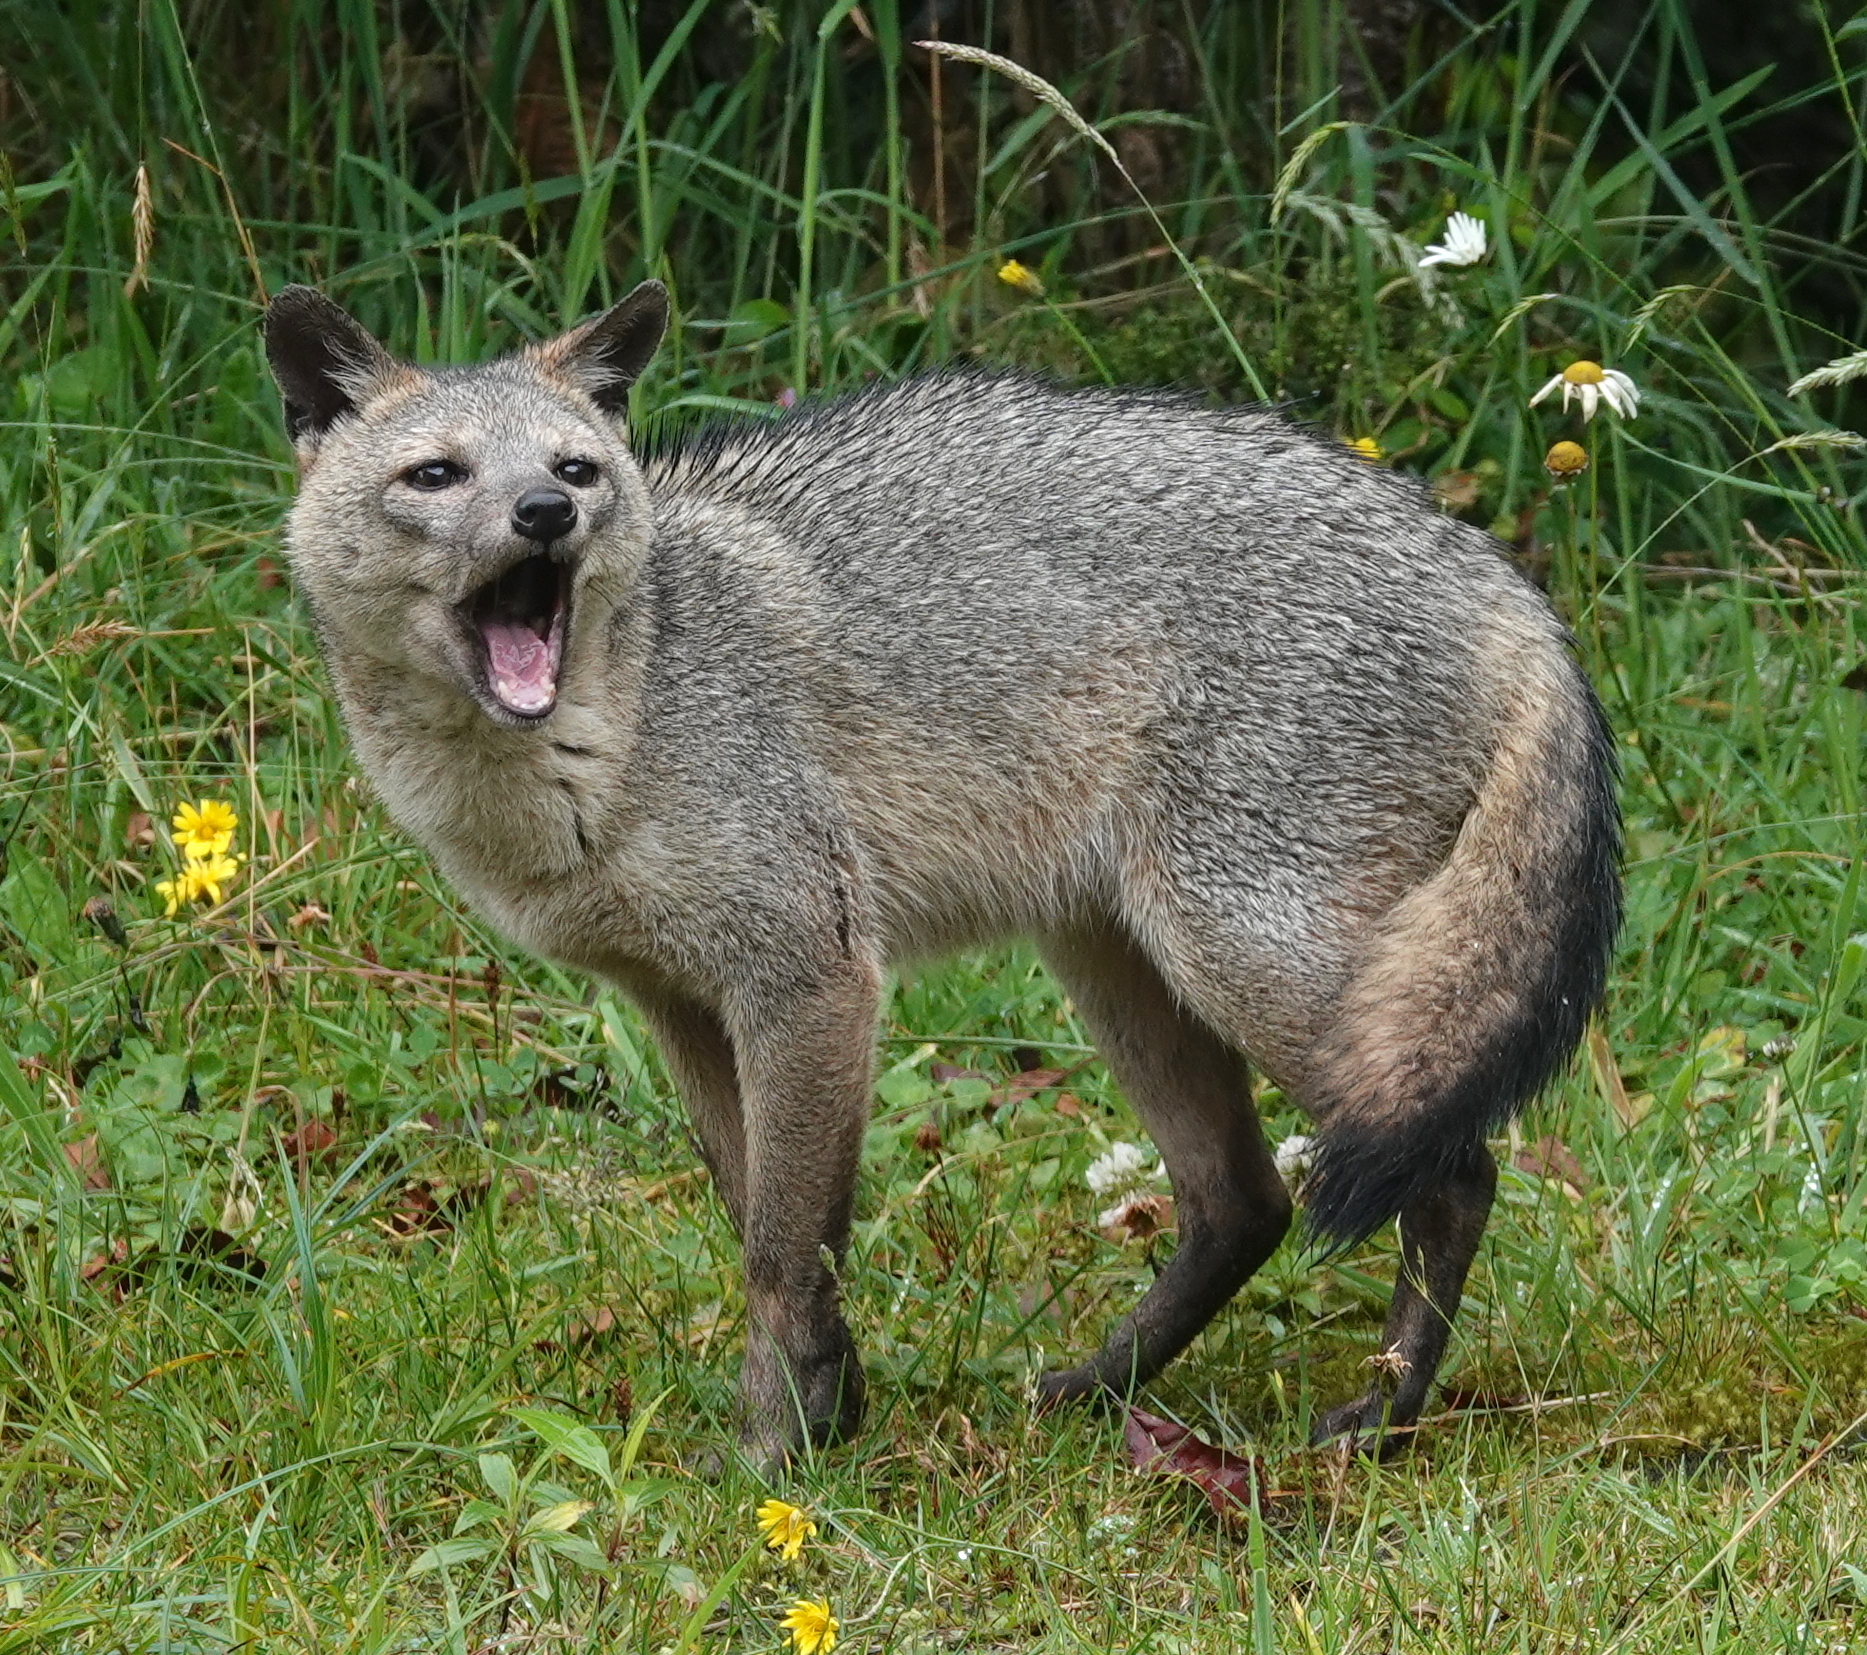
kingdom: Animalia
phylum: Chordata
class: Mammalia
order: Carnivora
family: Canidae
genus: Cerdocyon
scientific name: Cerdocyon thous
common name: Crab-eating fox
